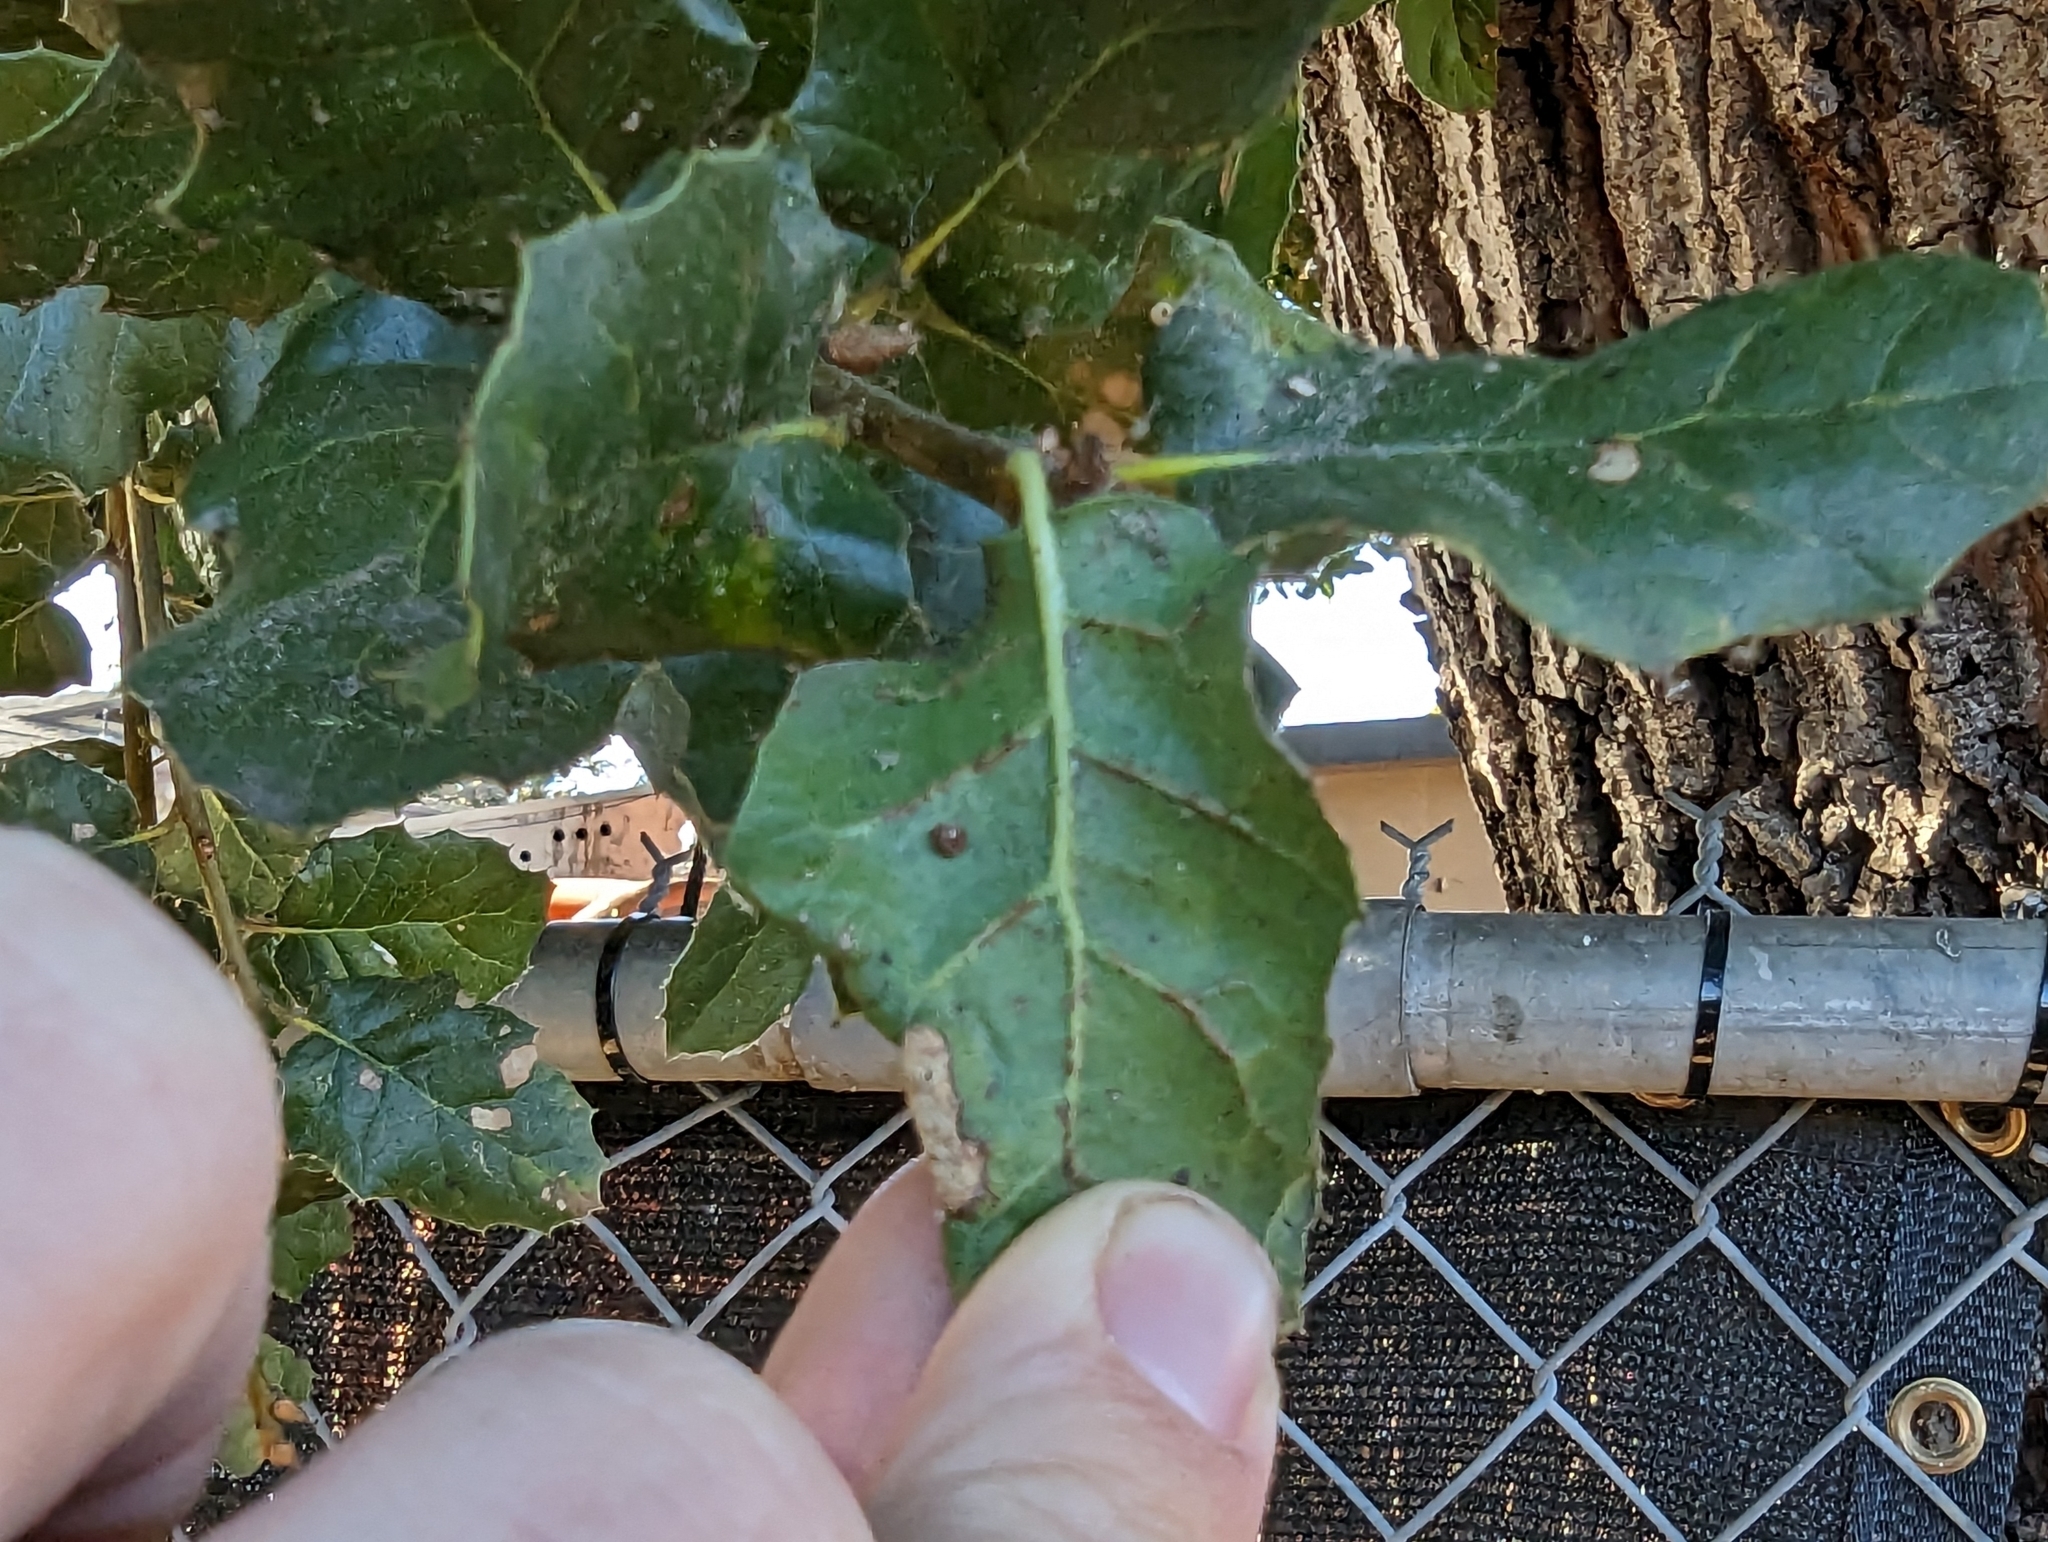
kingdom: Plantae
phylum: Tracheophyta
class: Magnoliopsida
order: Fagales
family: Fagaceae
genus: Quercus
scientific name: Quercus agrifolia
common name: California live oak
